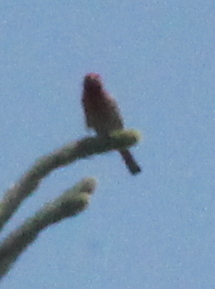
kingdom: Animalia
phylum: Chordata
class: Aves
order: Passeriformes
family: Fringillidae
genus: Haemorhous
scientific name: Haemorhous
